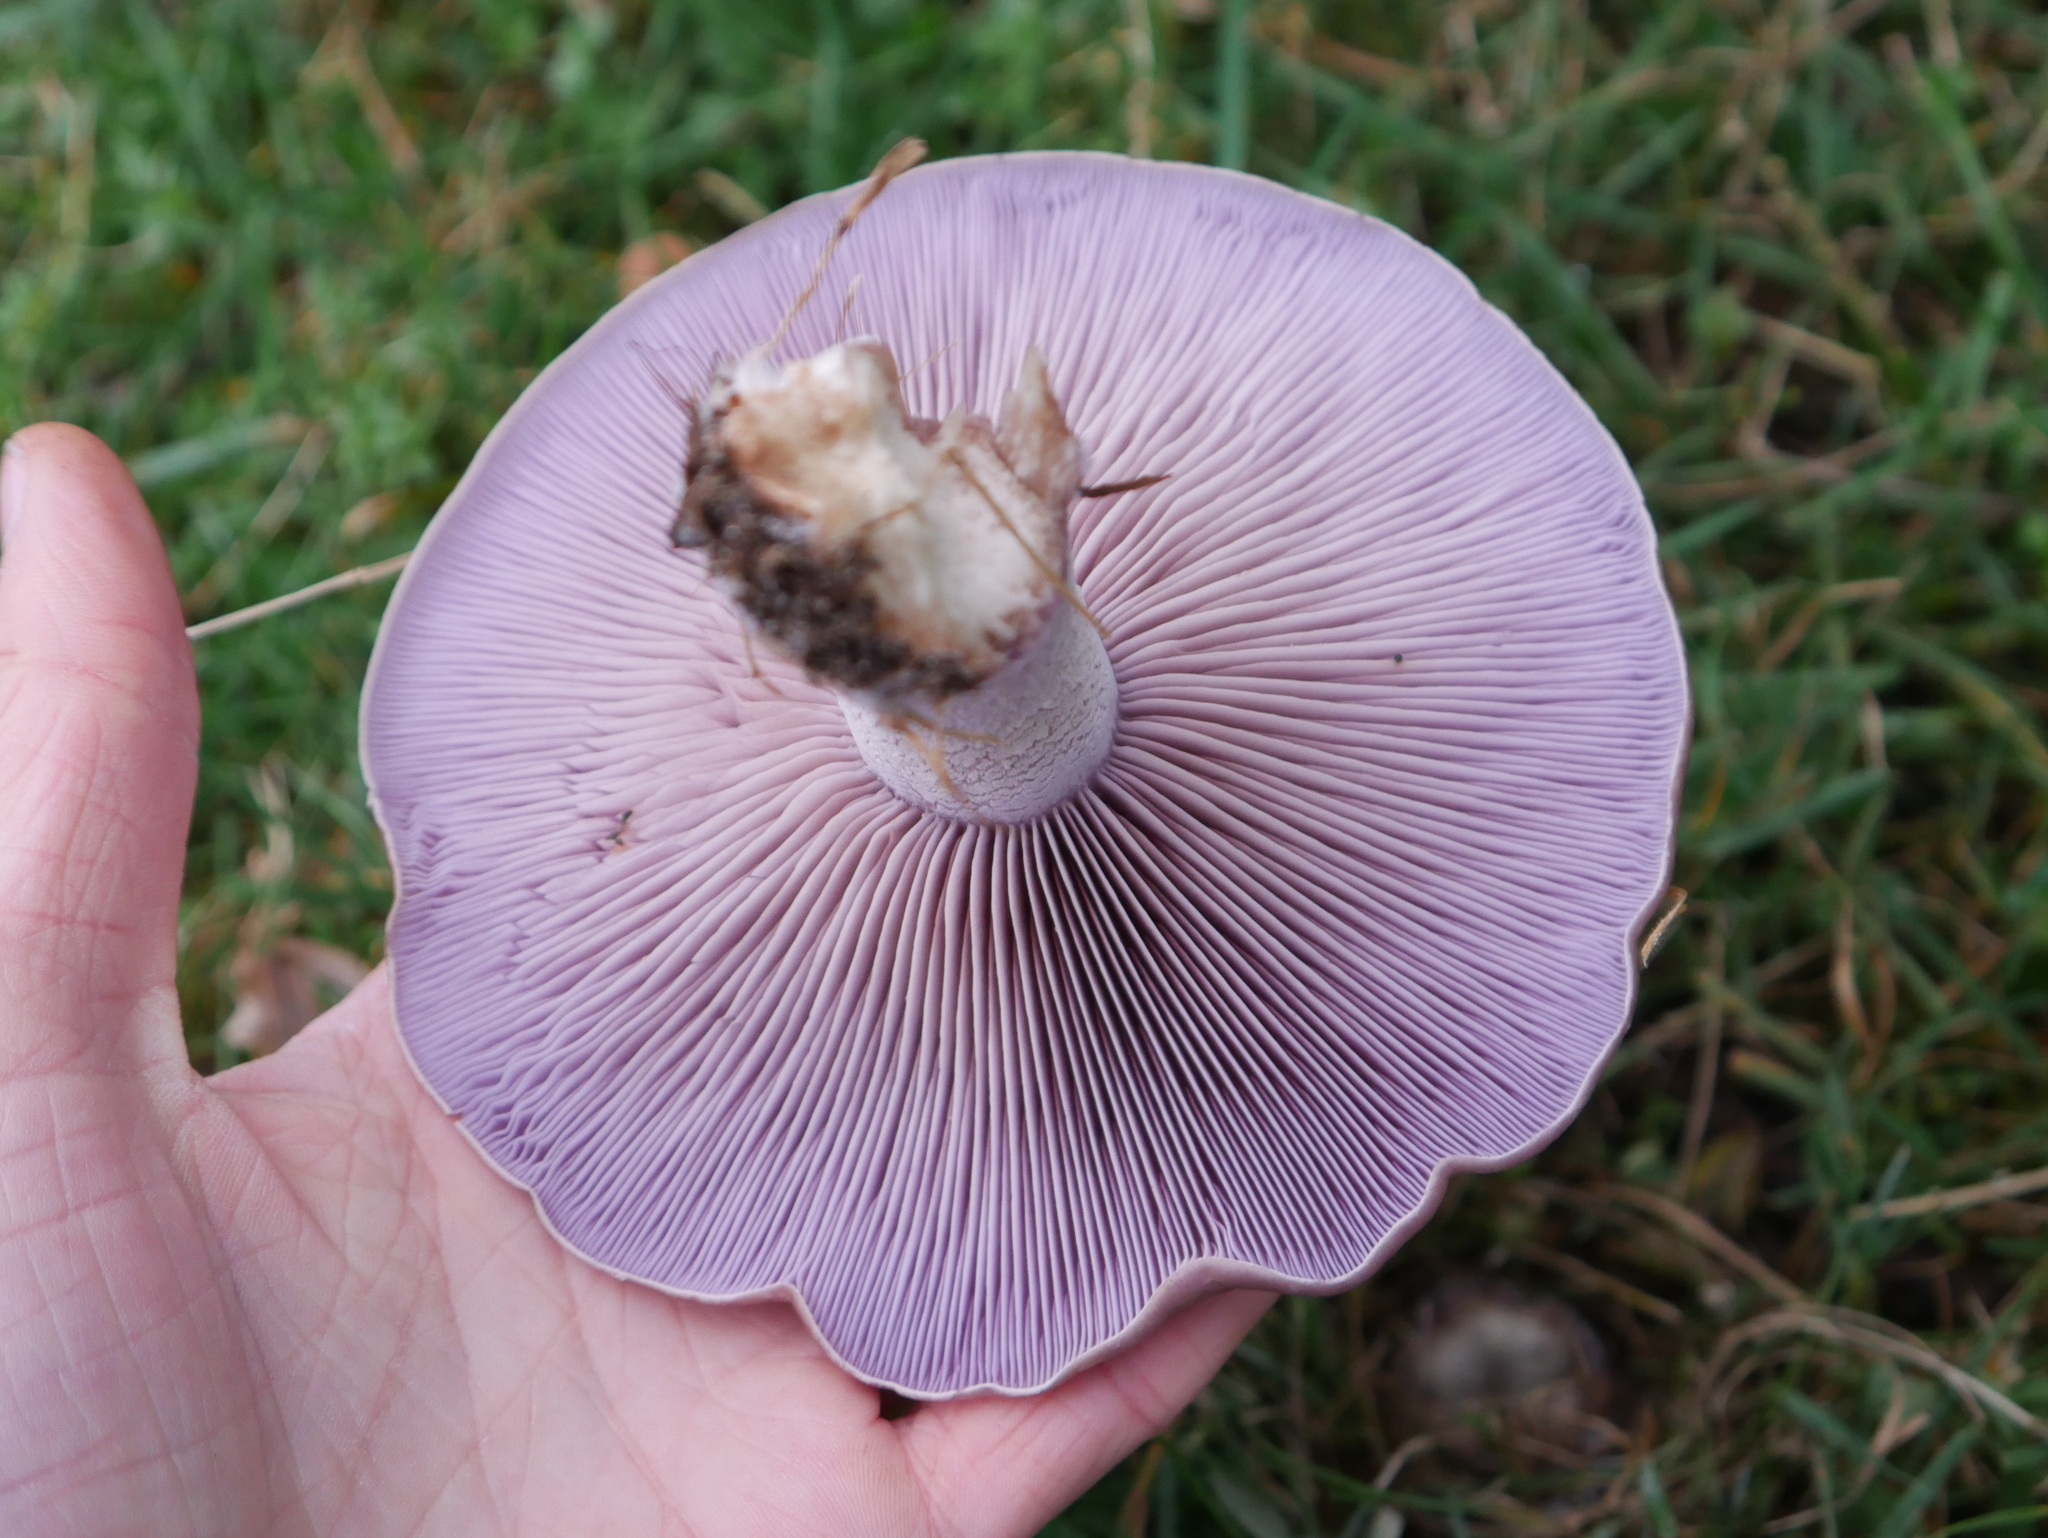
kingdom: Fungi
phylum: Basidiomycota
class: Agaricomycetes
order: Agaricales
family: Tricholomataceae
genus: Collybia
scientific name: Collybia
